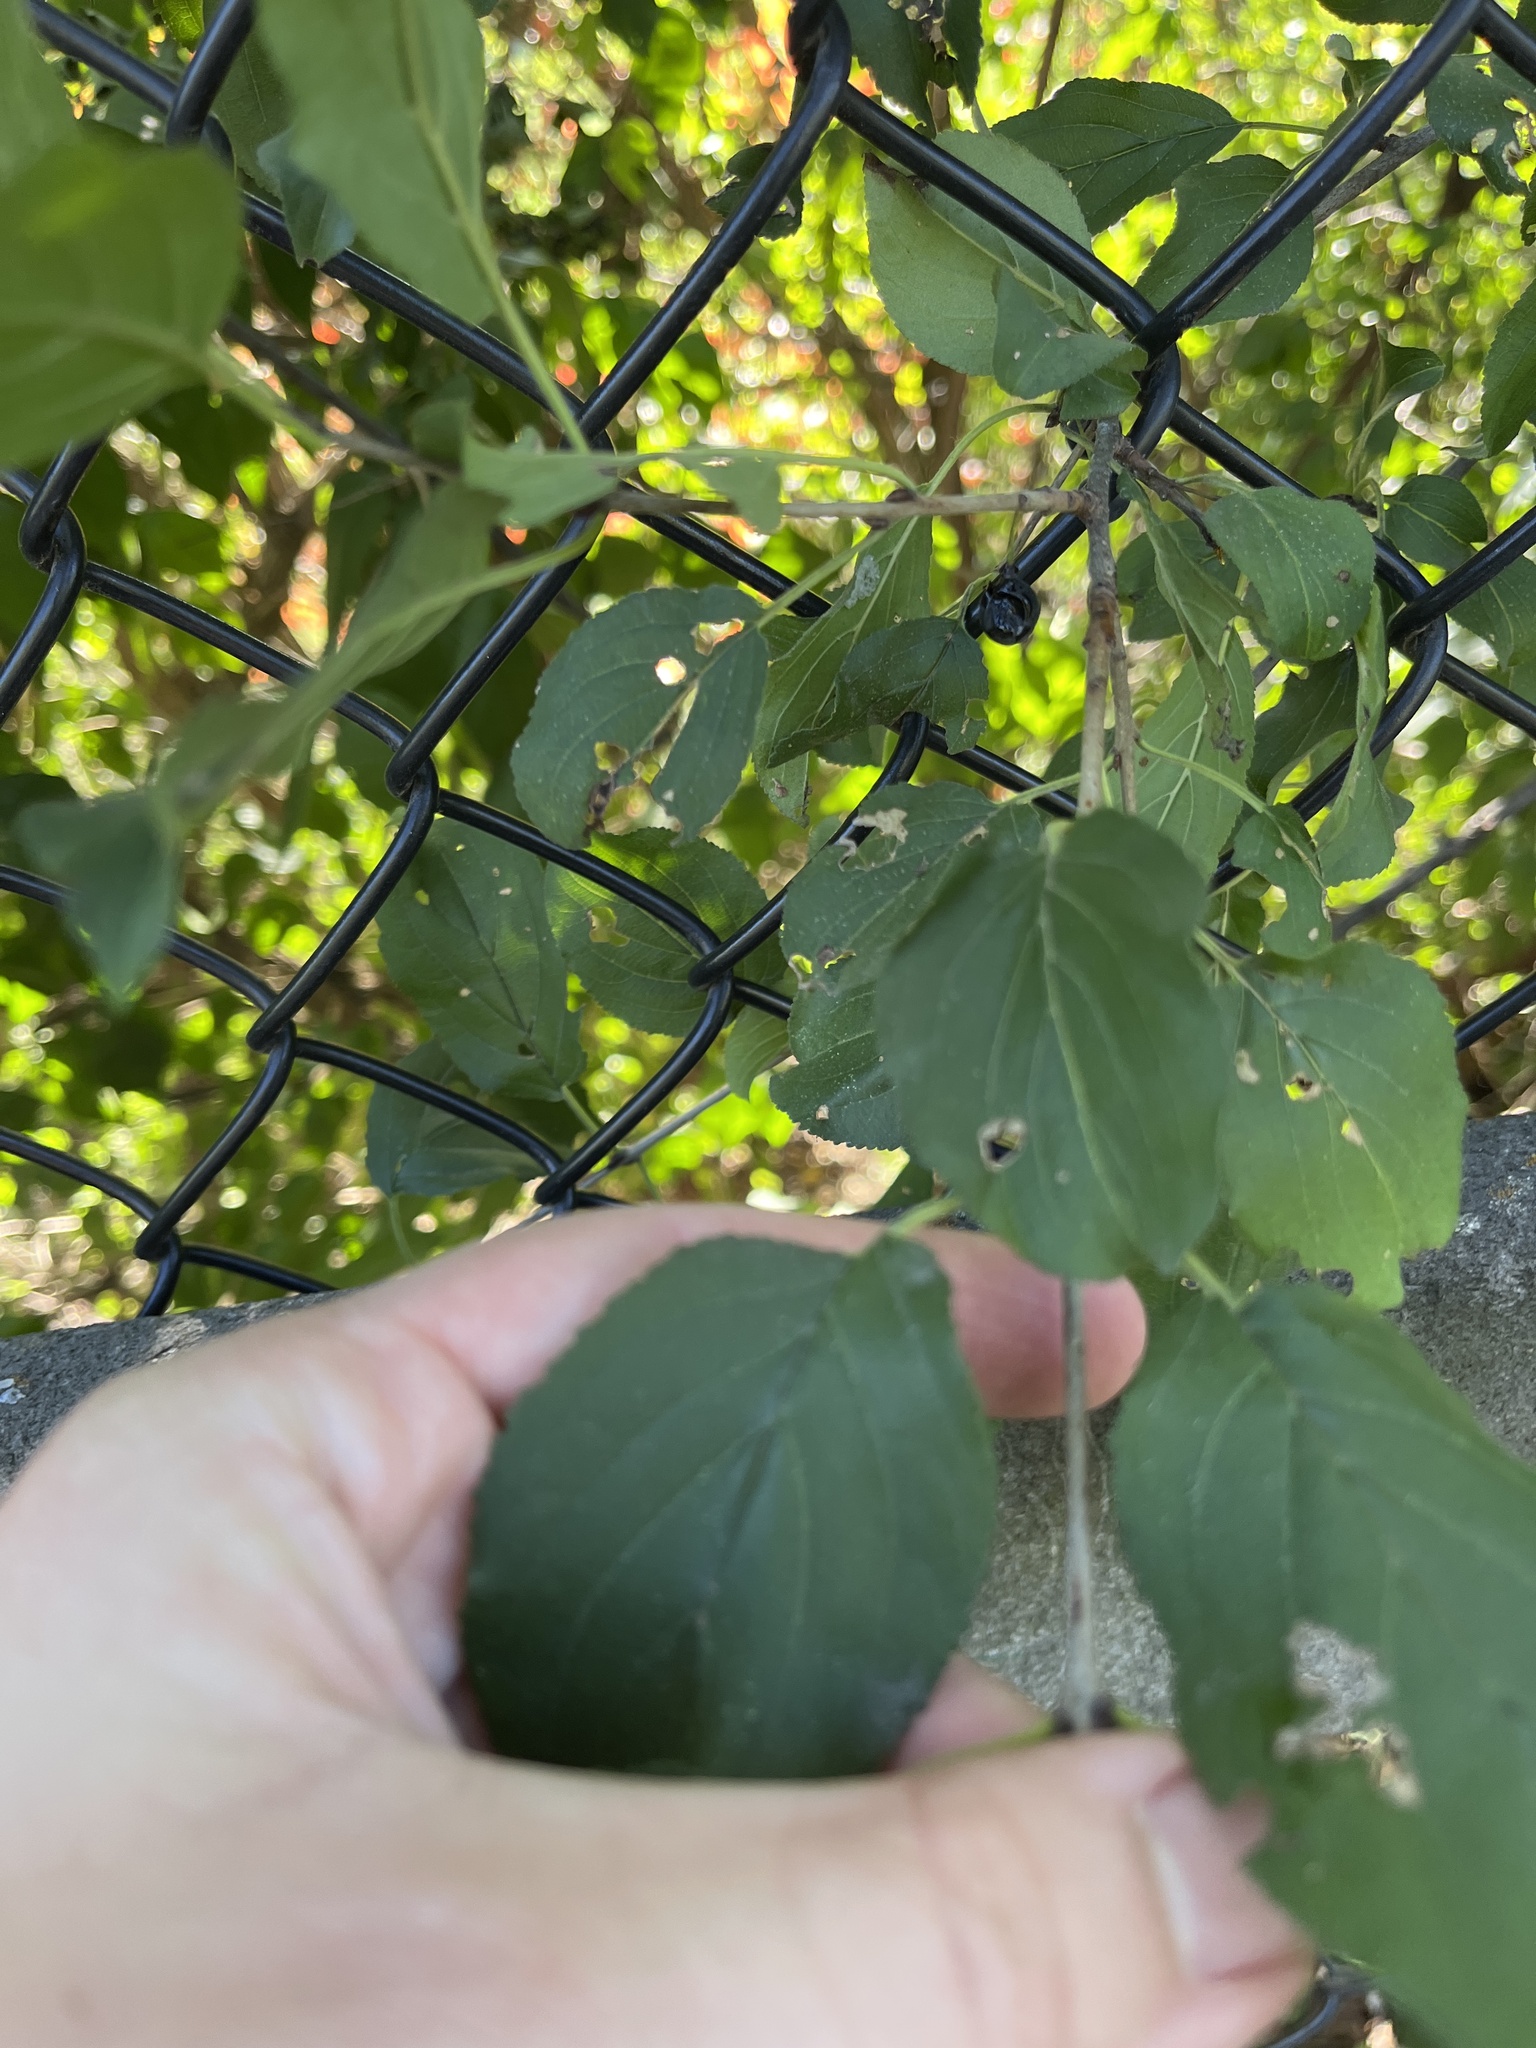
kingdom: Plantae
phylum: Tracheophyta
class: Magnoliopsida
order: Rosales
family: Rhamnaceae
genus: Rhamnus
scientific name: Rhamnus cathartica
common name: Common buckthorn
